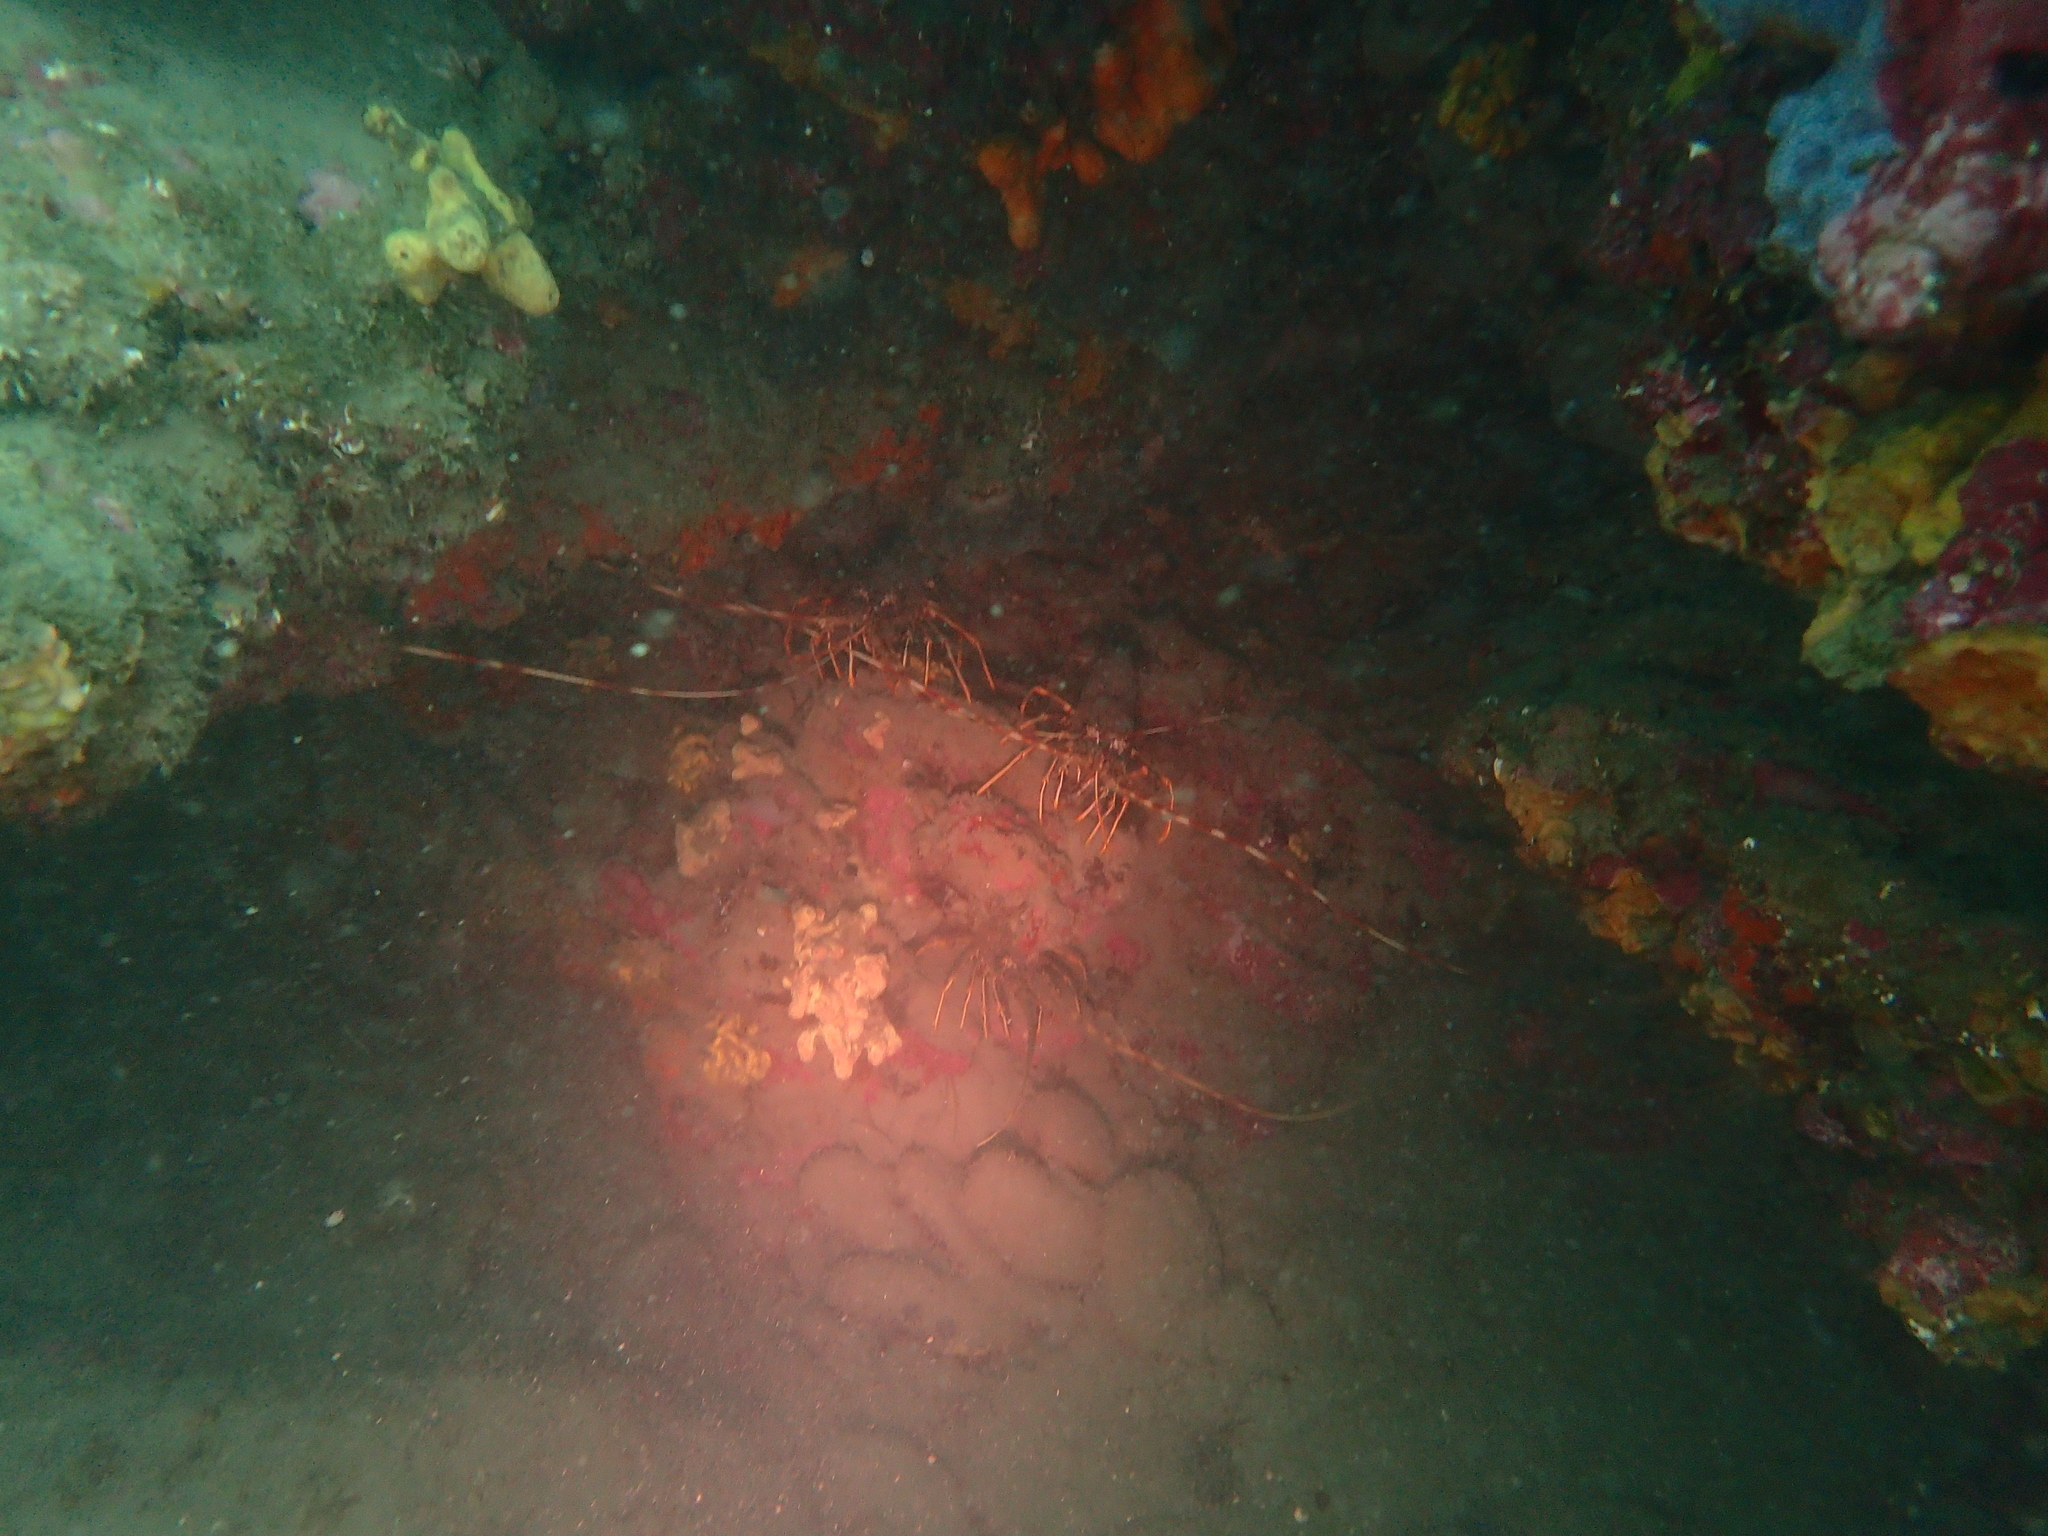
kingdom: Animalia
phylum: Arthropoda
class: Malacostraca
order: Decapoda
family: Palinuridae
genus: Palinurus
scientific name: Palinurus elephas
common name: European spiny lobster
